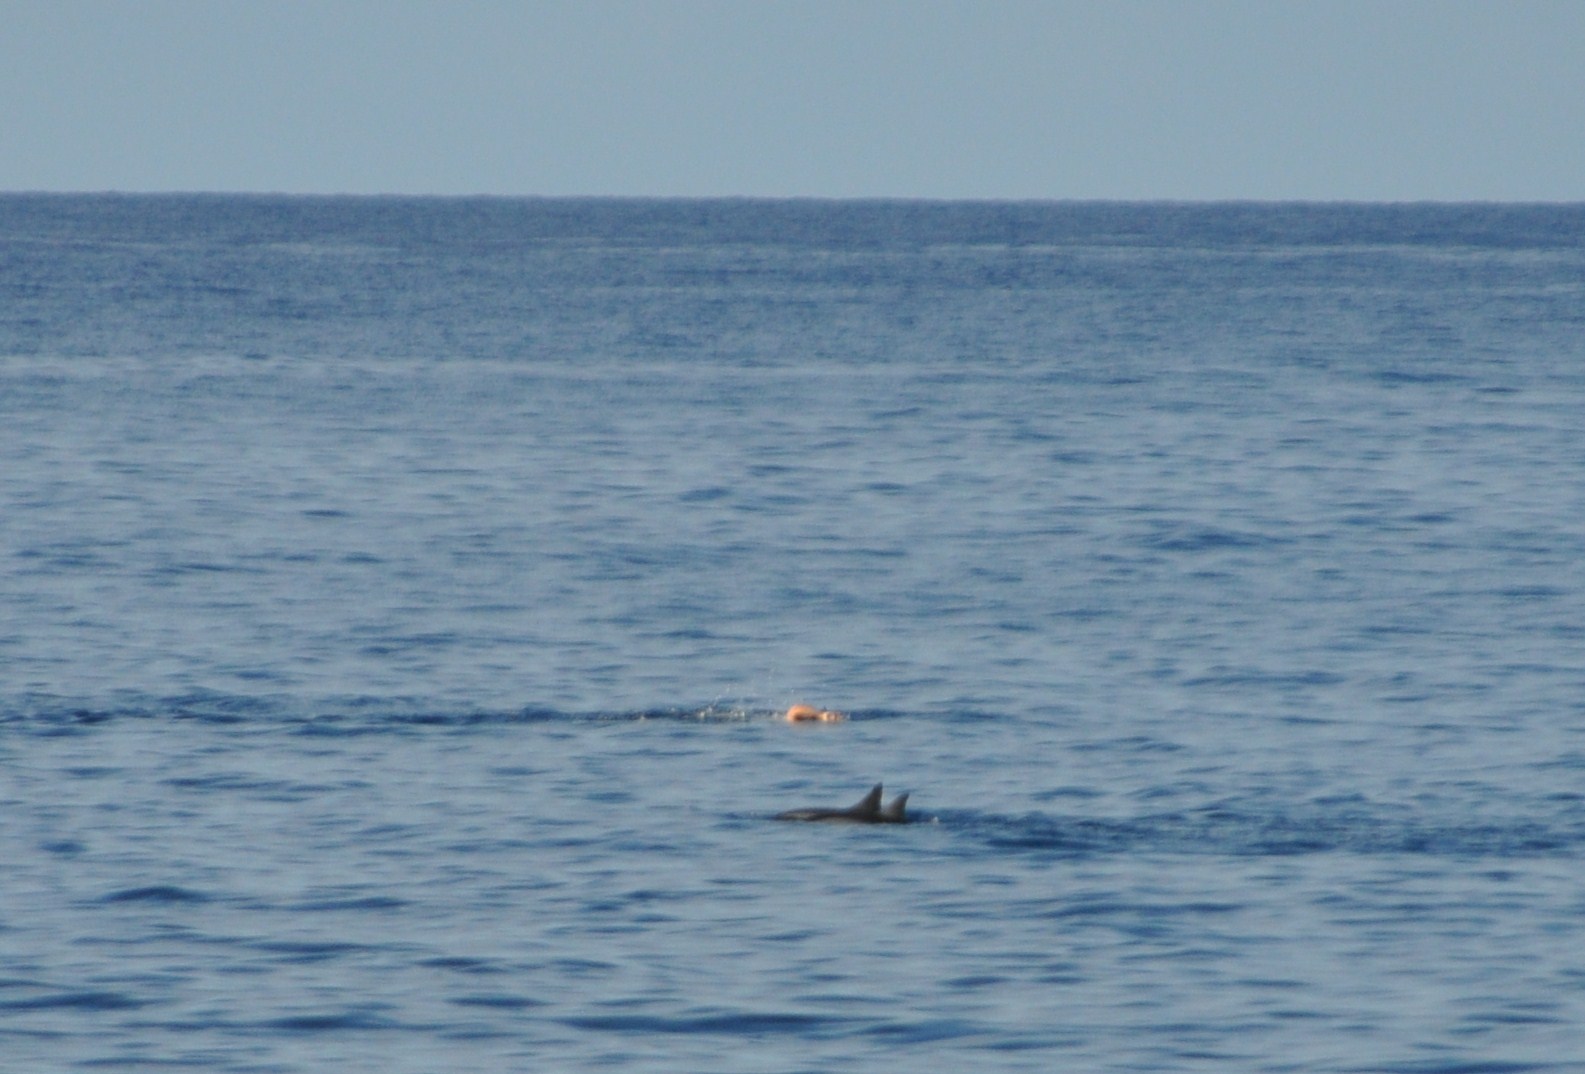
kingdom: Animalia
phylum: Chordata
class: Mammalia
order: Cetacea
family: Delphinidae
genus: Stenella
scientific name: Stenella longirostris
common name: Spinner dolphin
